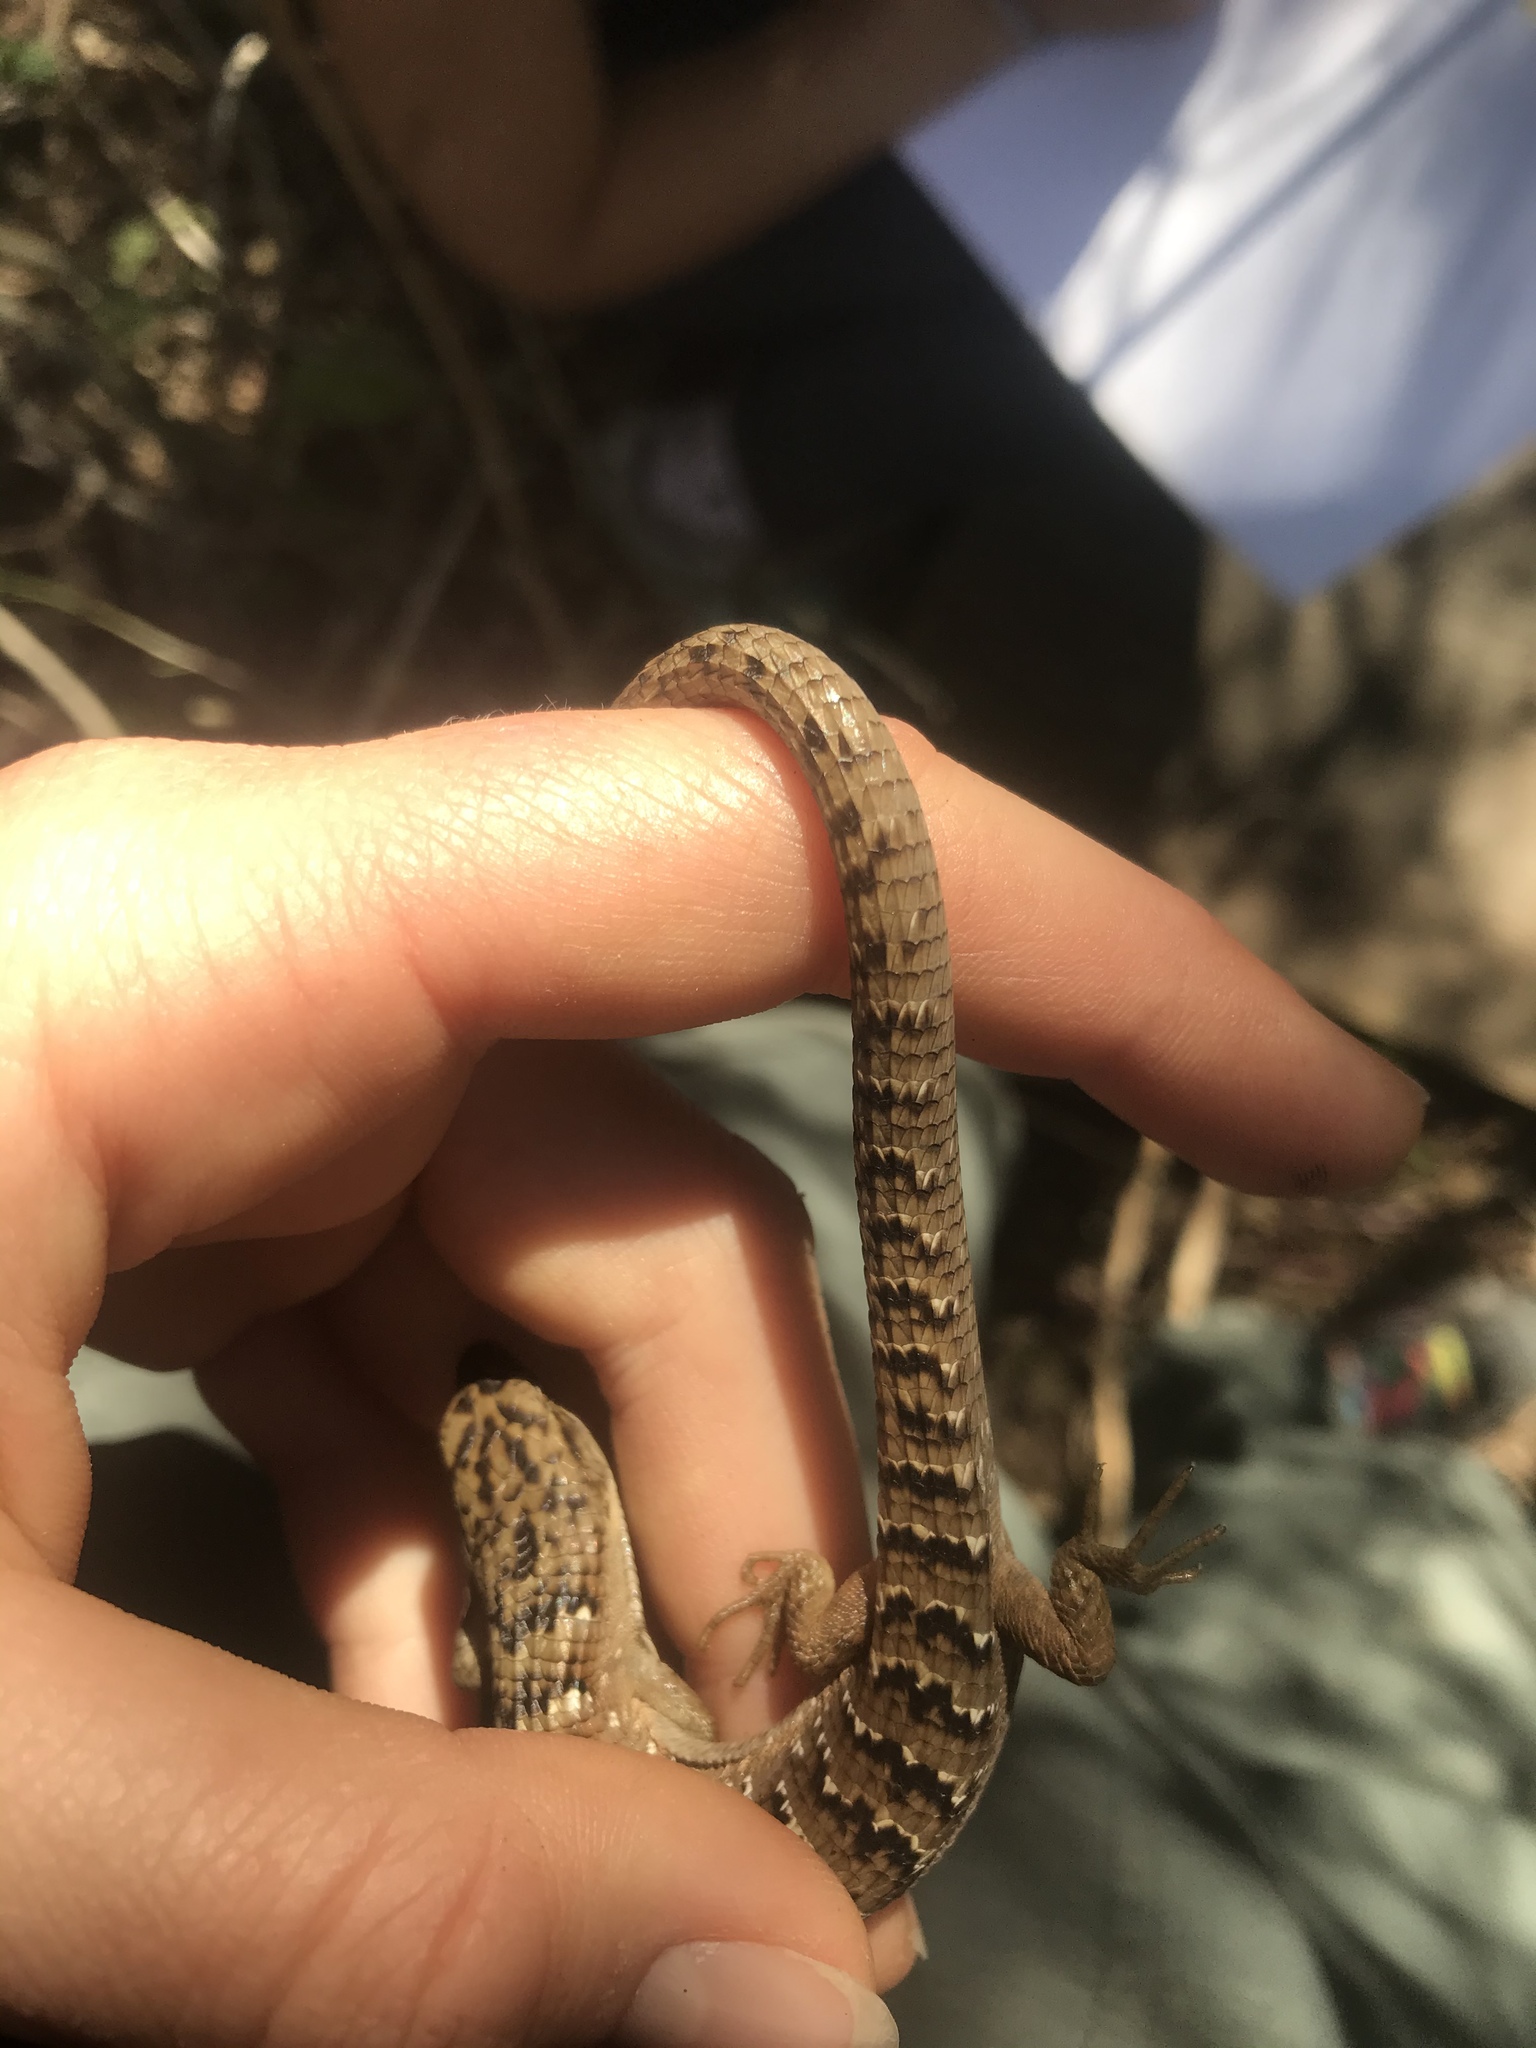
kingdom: Animalia
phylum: Chordata
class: Squamata
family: Anguidae
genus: Elgaria
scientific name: Elgaria multicarinata
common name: Southern alligator lizard
